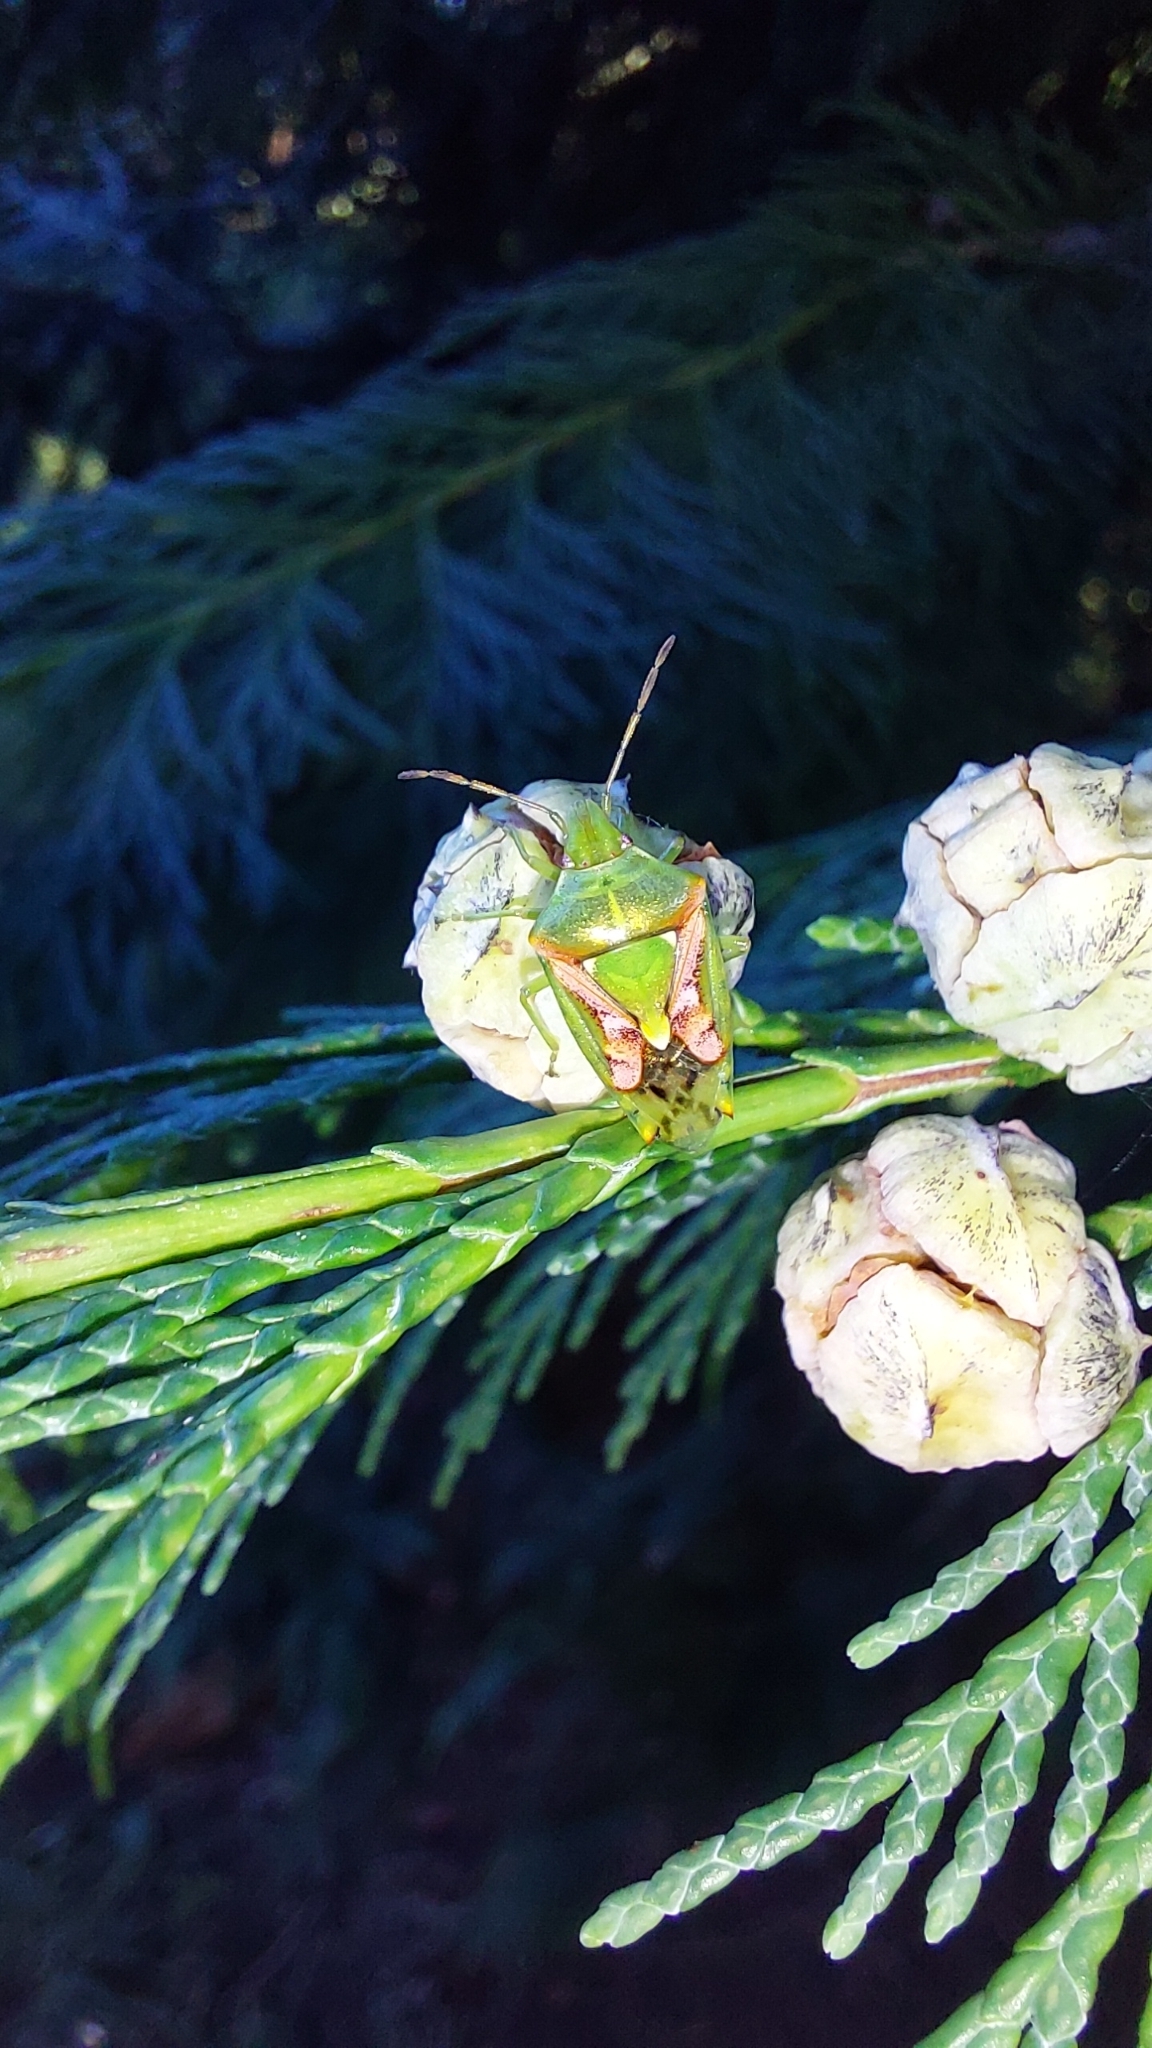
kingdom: Animalia
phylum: Arthropoda
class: Insecta
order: Hemiptera
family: Acanthosomatidae
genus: Cyphostethus
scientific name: Cyphostethus tristriatus
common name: Juniper shieldbug
